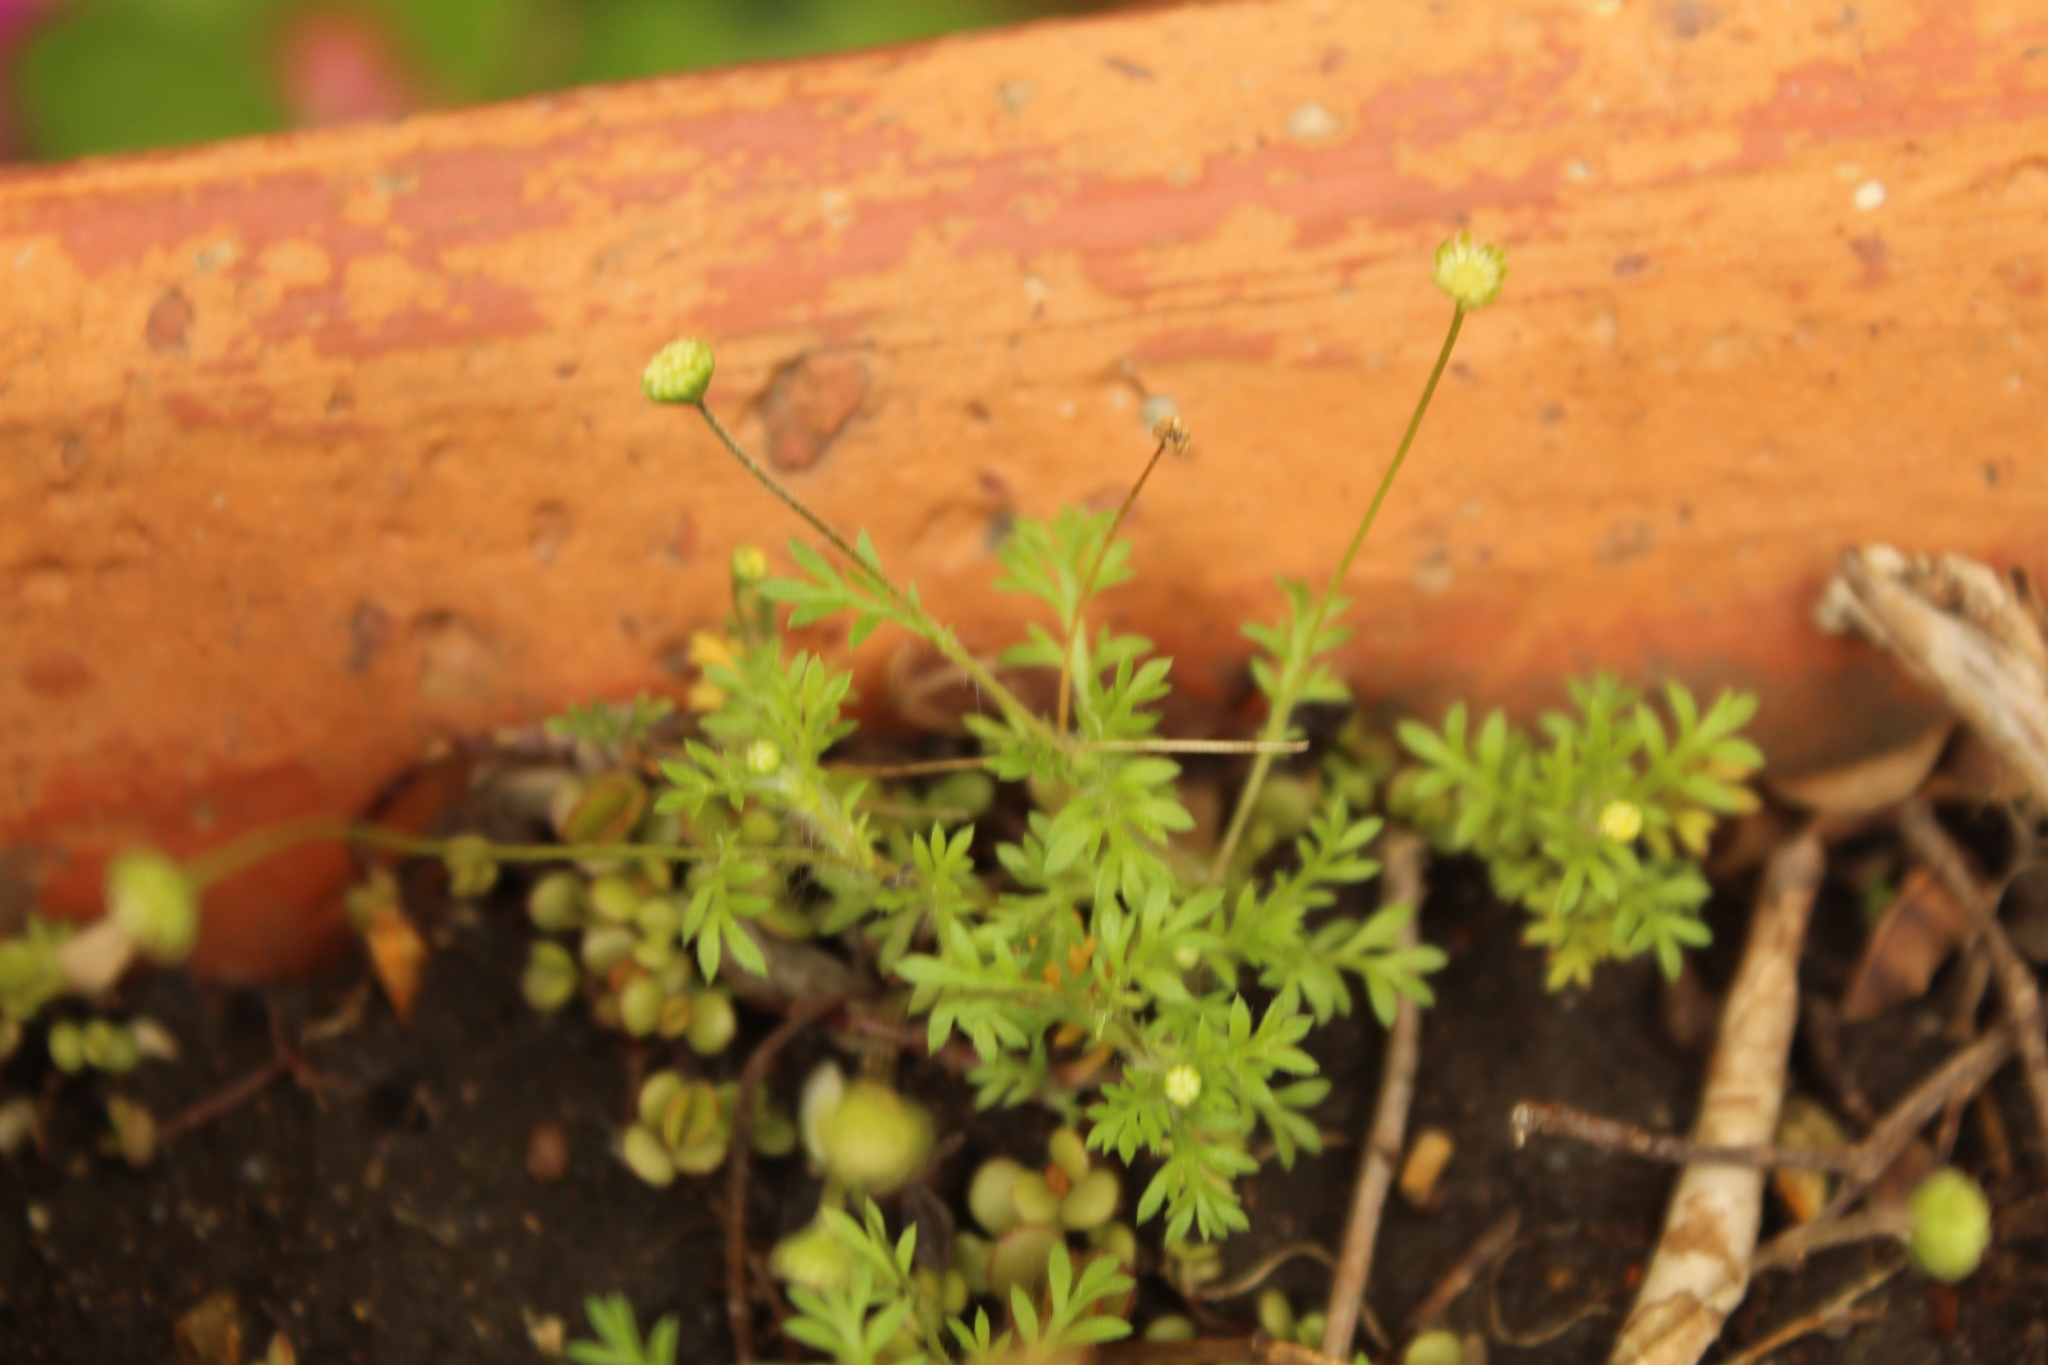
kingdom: Plantae
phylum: Tracheophyta
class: Magnoliopsida
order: Asterales
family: Asteraceae
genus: Cotula
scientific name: Cotula australis
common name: Australian waterbuttons
